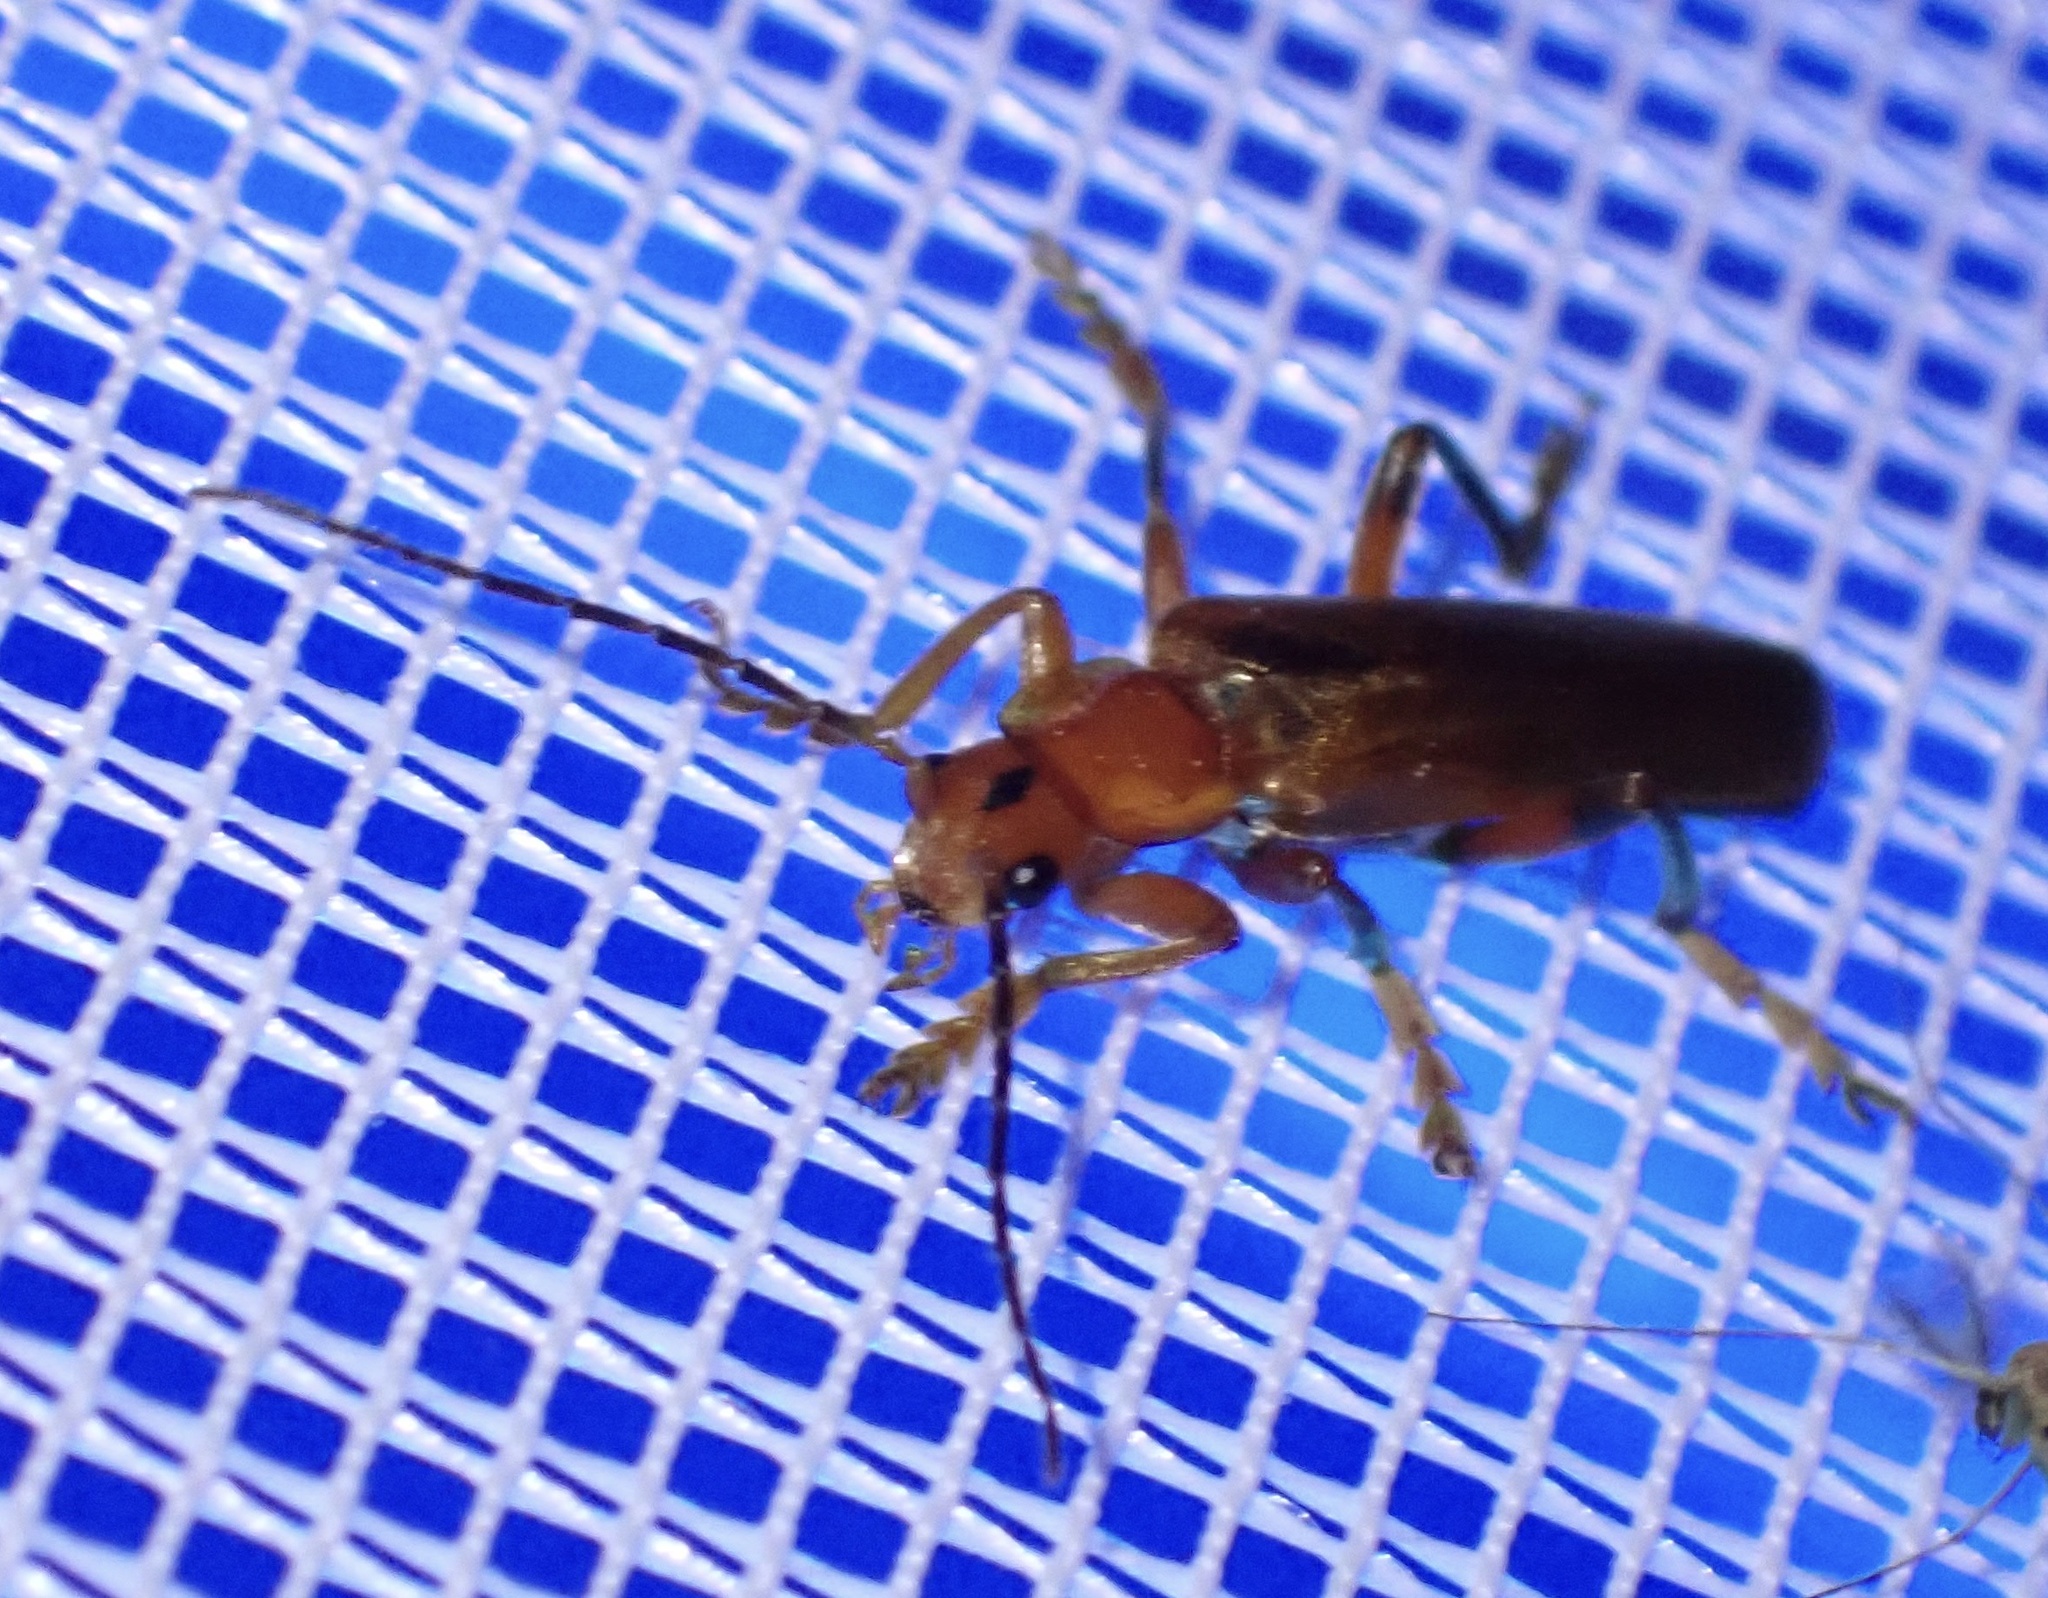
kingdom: Animalia
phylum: Arthropoda
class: Insecta
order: Coleoptera
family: Cantharidae
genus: Cantharis
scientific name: Cantharis livida
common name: Livid soldier beetle
